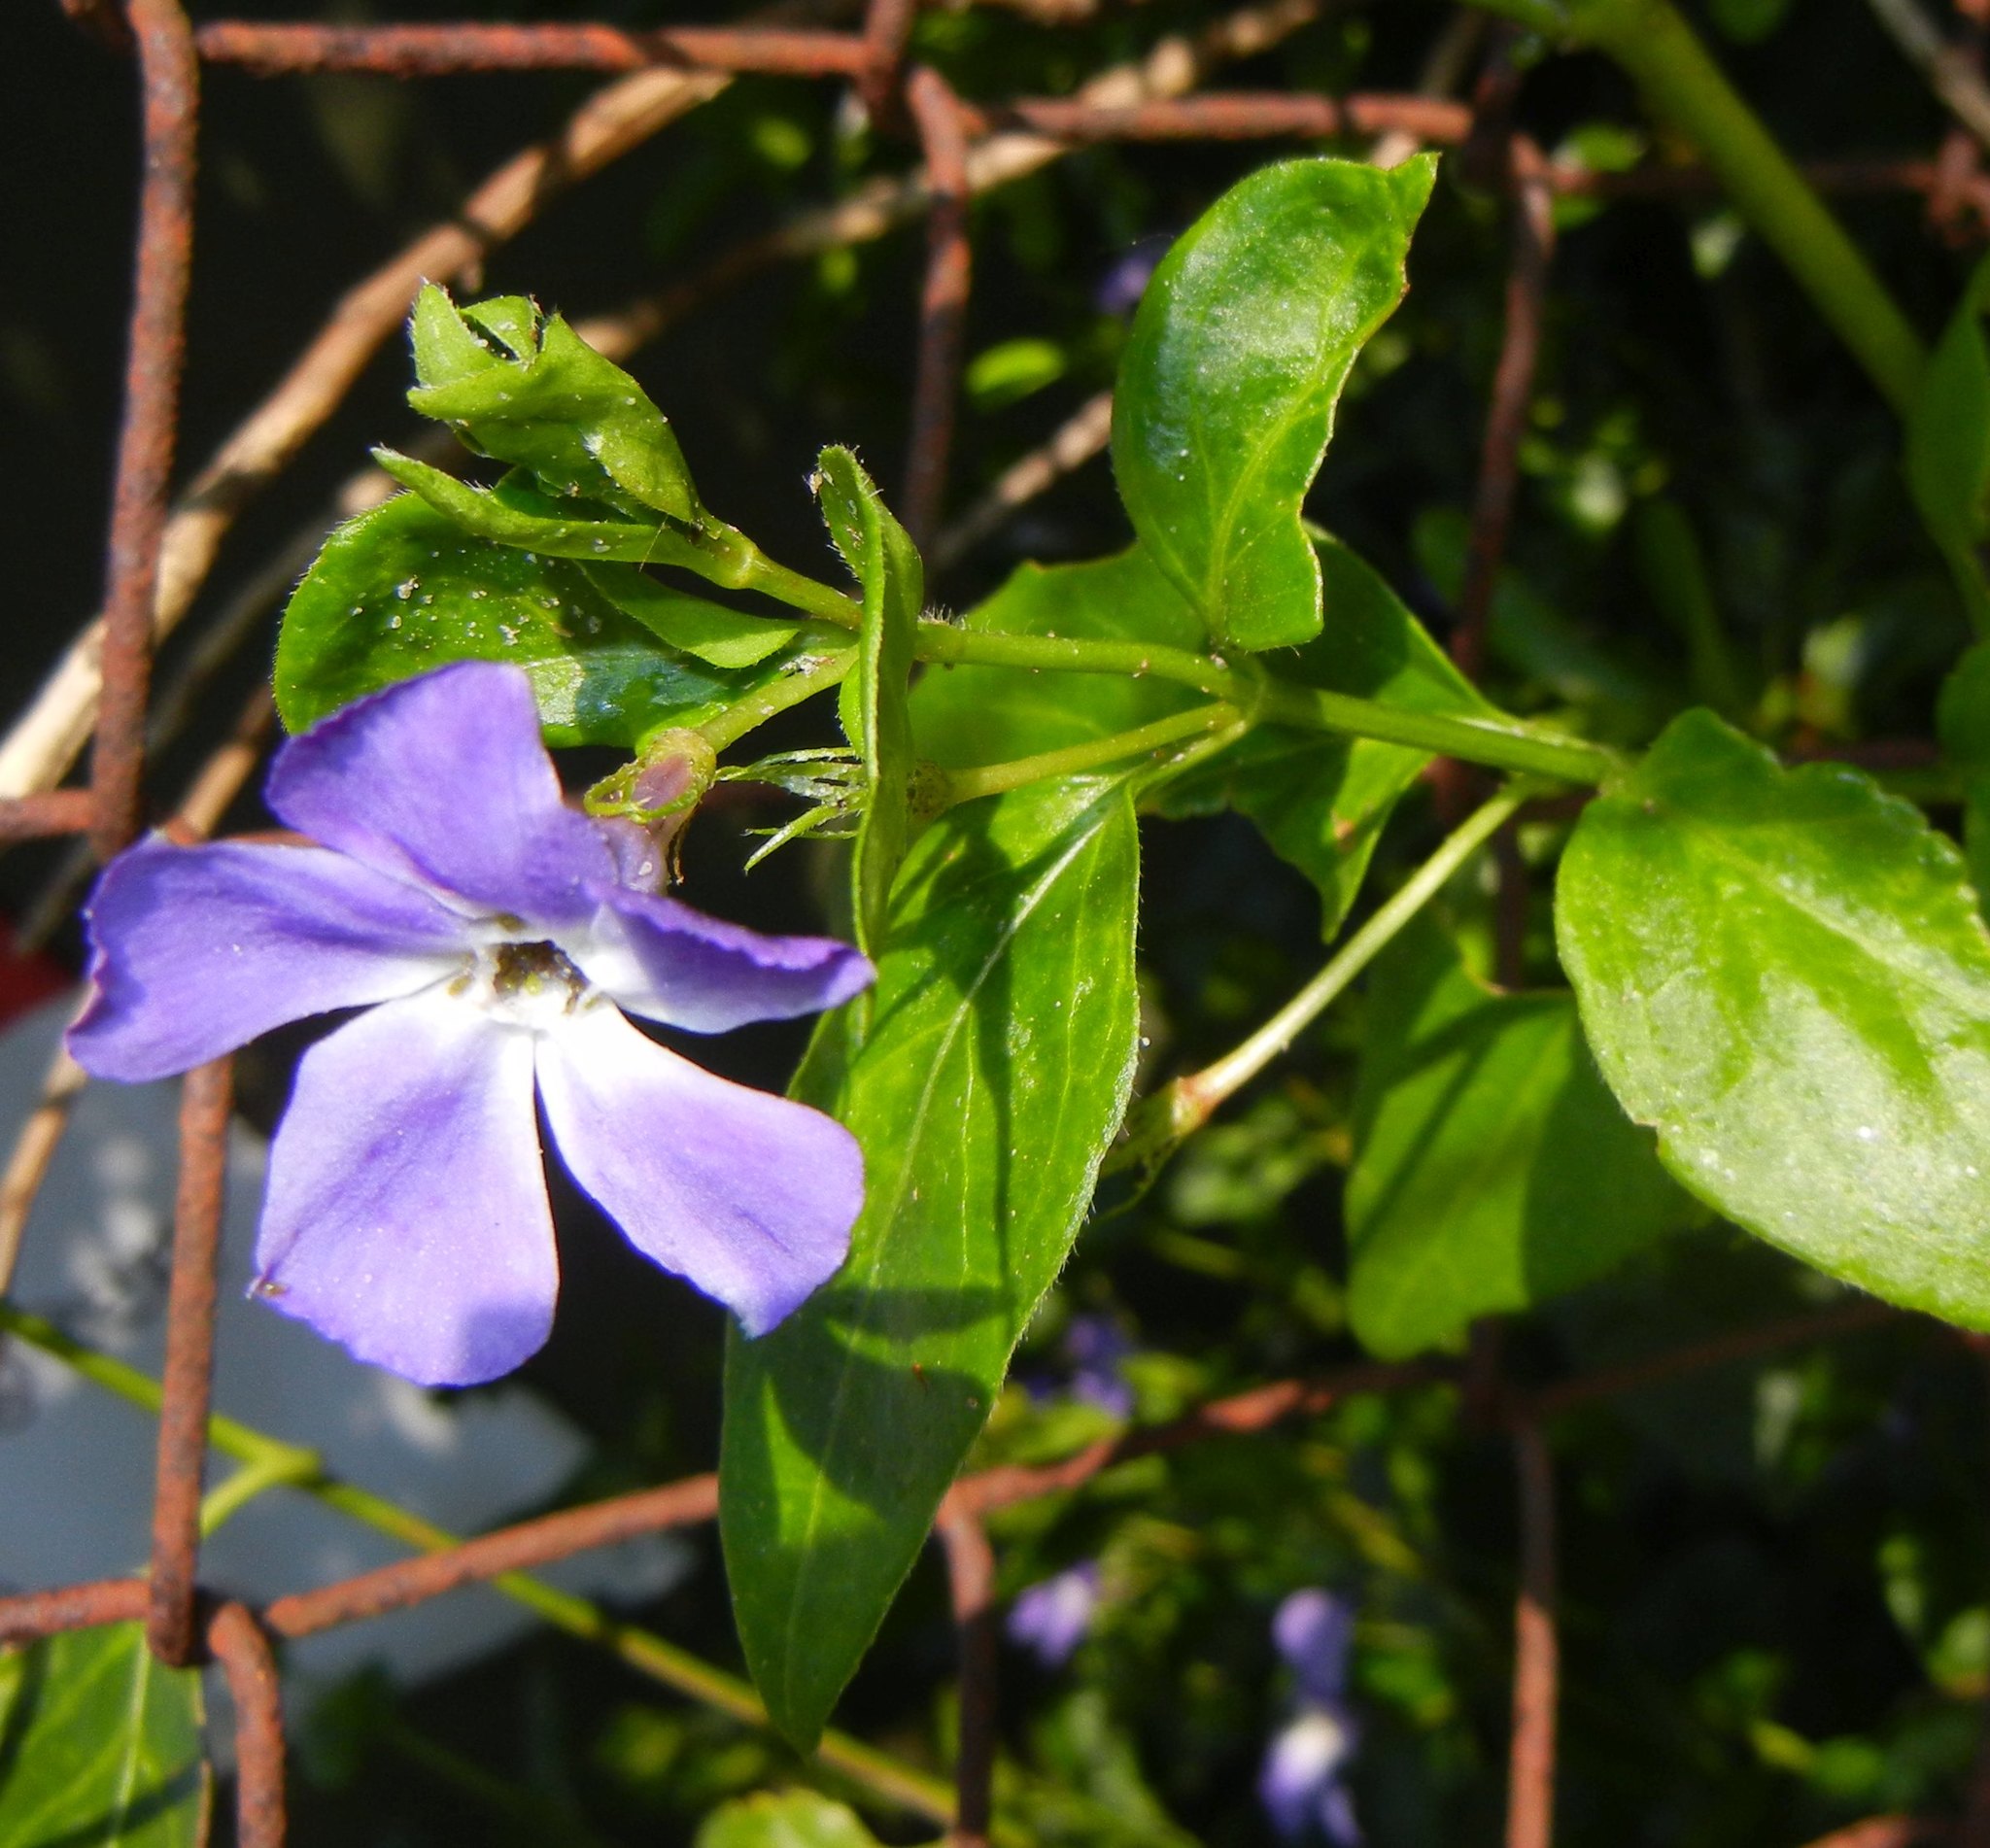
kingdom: Plantae
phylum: Tracheophyta
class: Magnoliopsida
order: Gentianales
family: Apocynaceae
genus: Vinca
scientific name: Vinca major
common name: Greater periwinkle
